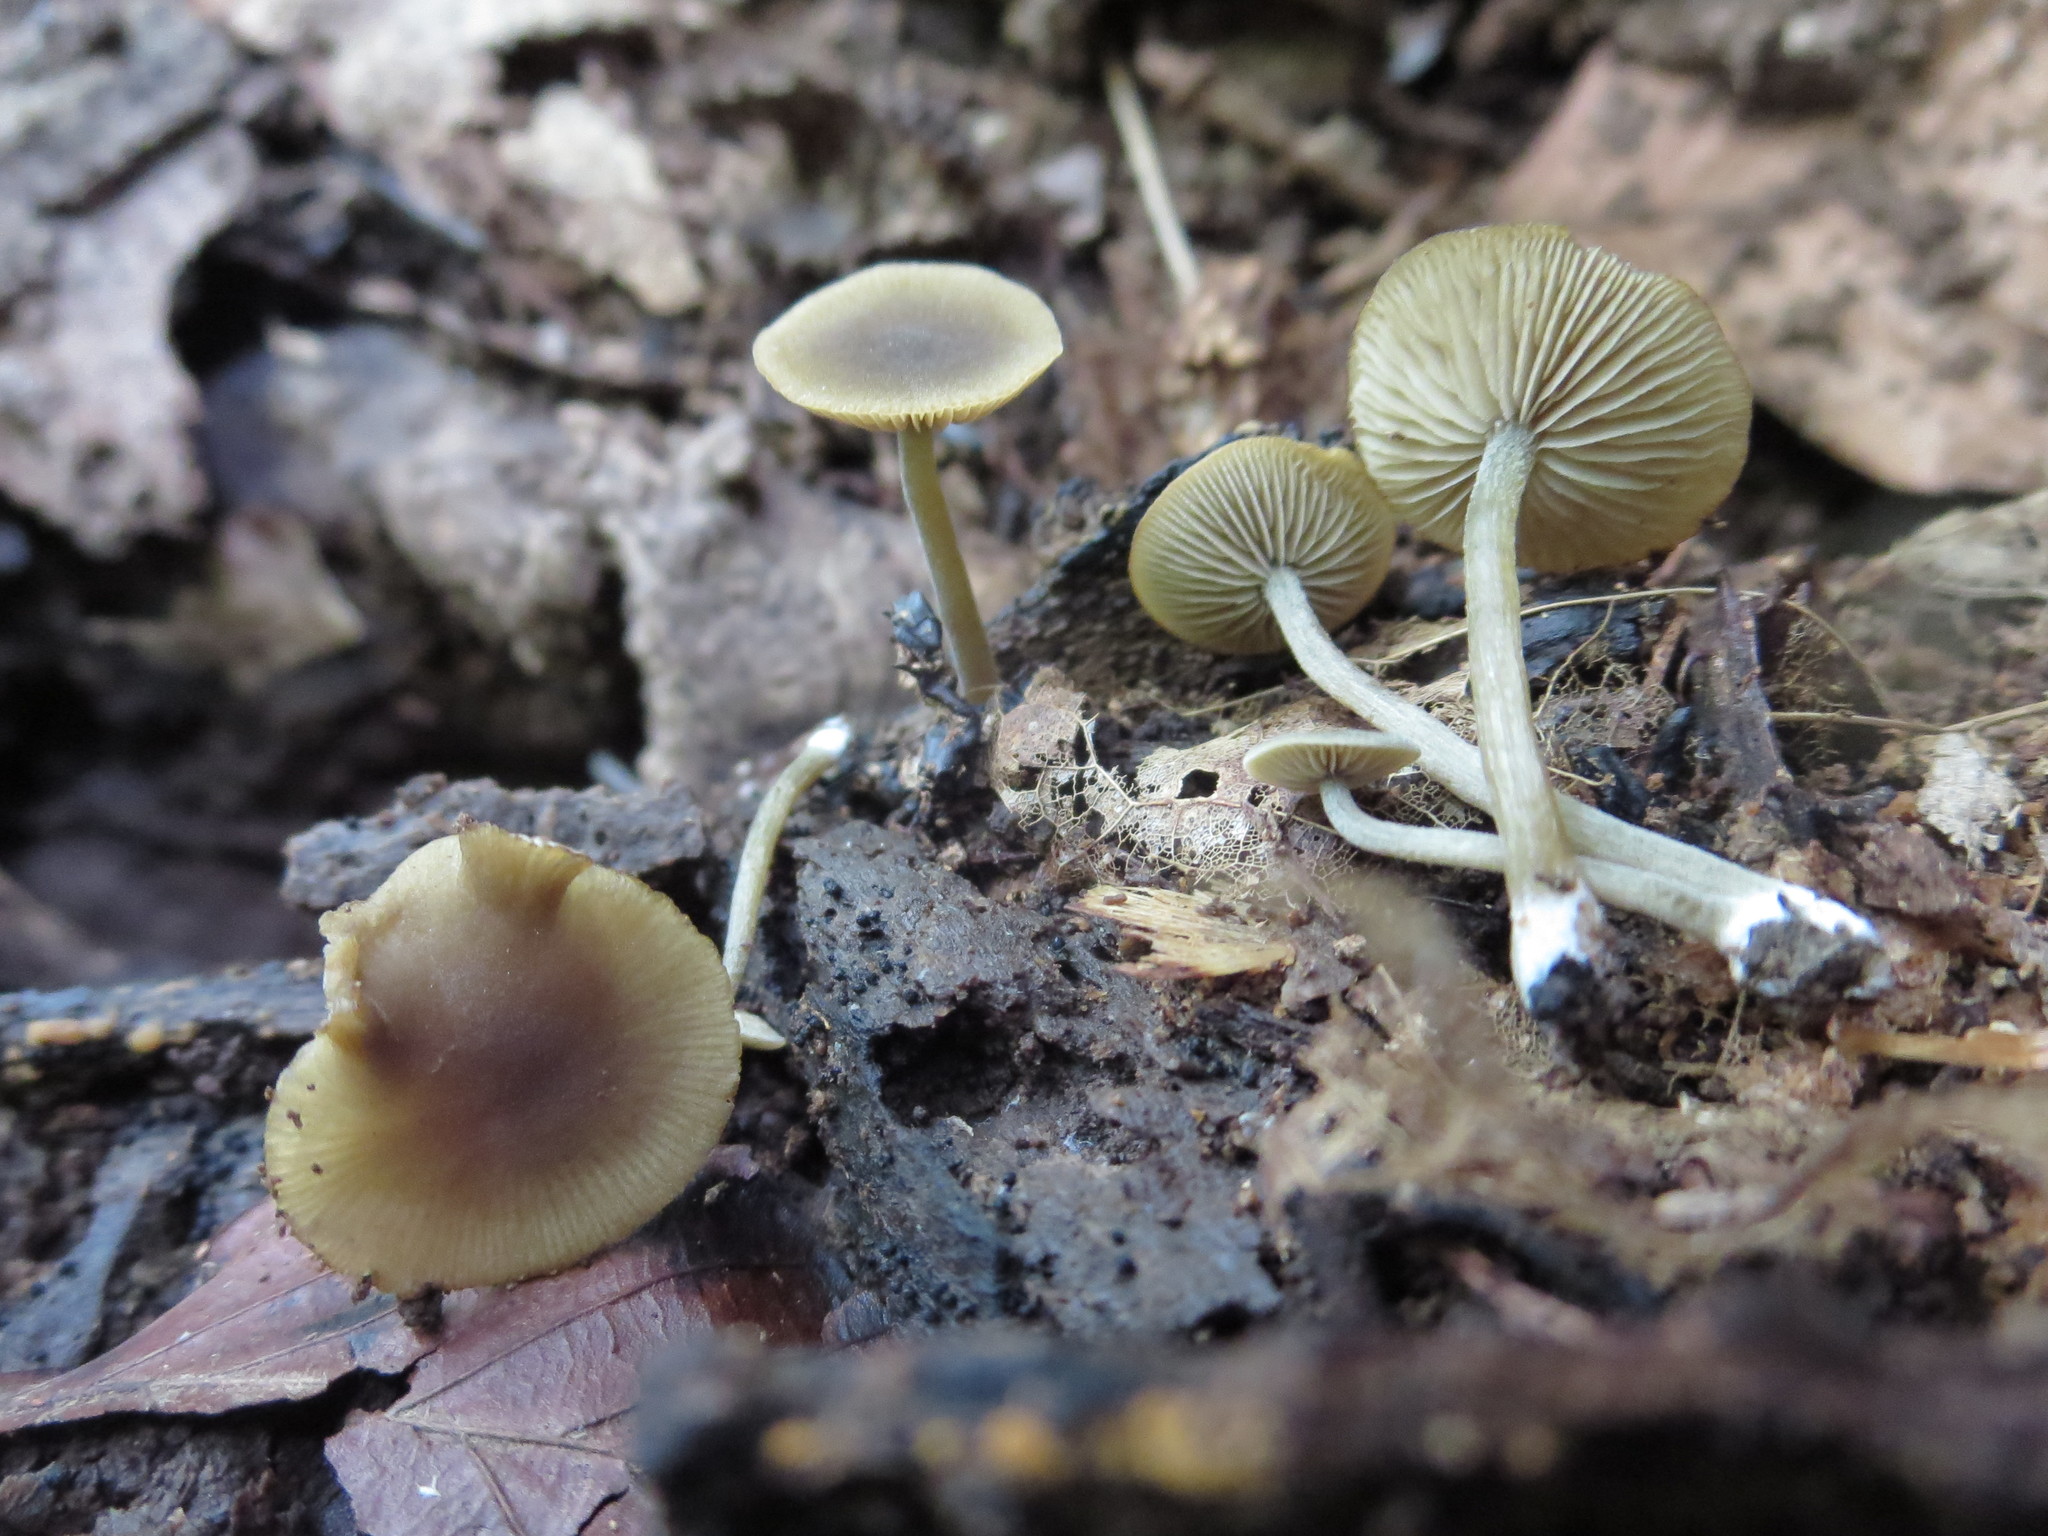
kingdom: Fungi
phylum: Basidiomycota
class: Agaricomycetes
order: Agaricales
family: Crepidotaceae
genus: Simocybe
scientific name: Simocybe centunculus
